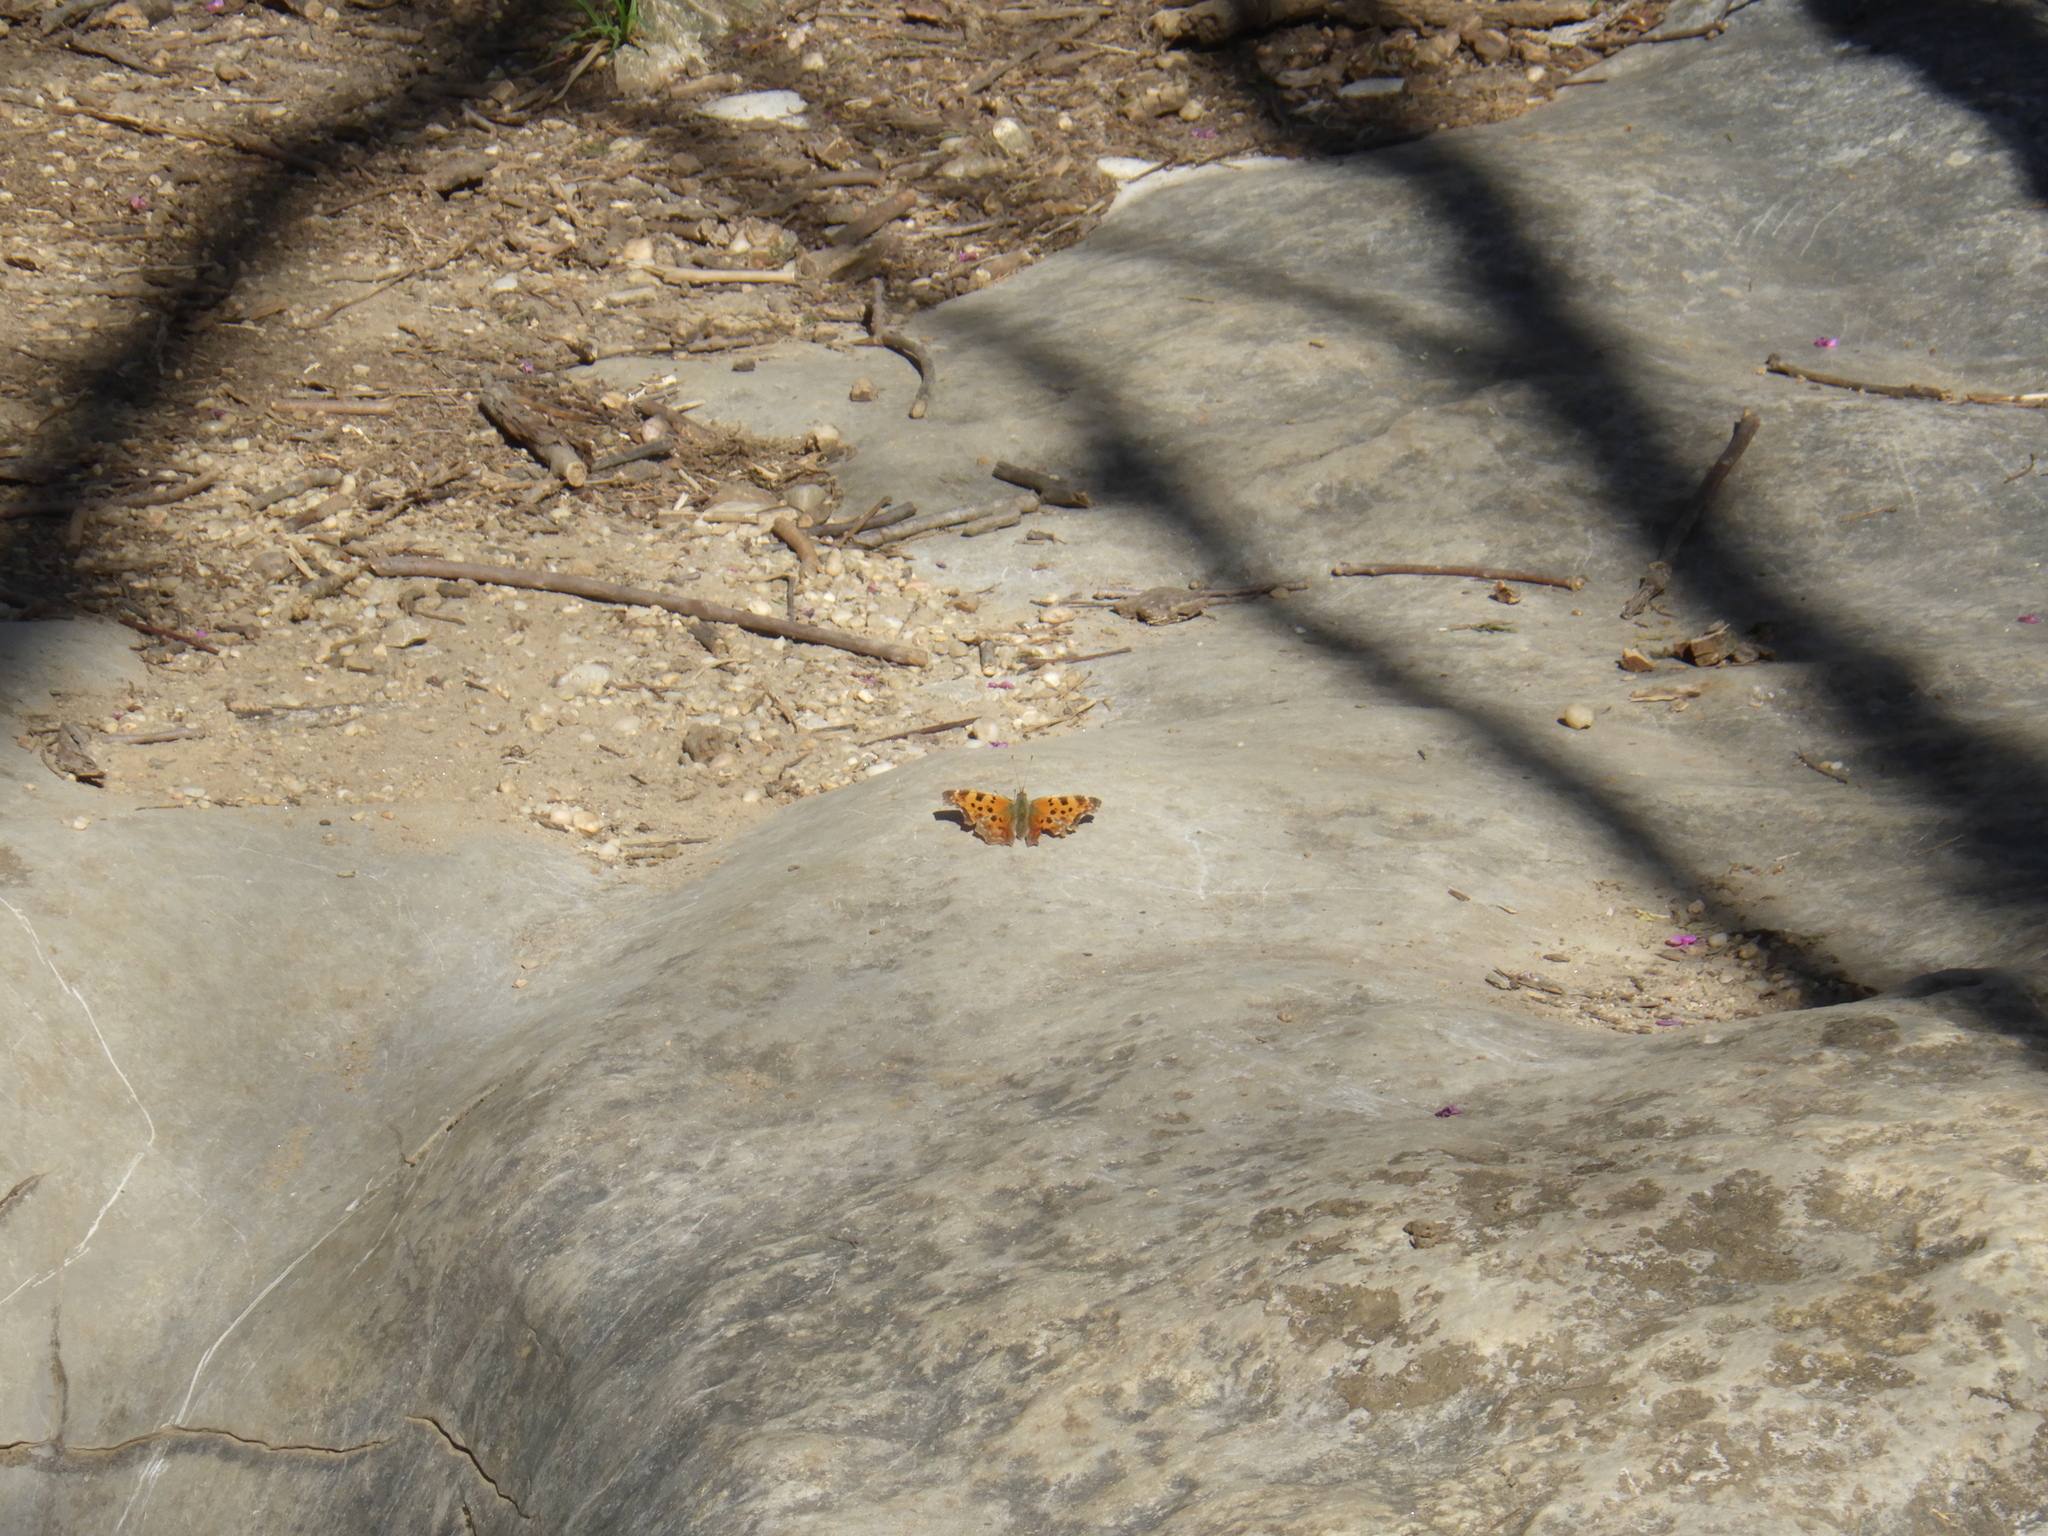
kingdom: Animalia
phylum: Arthropoda
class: Insecta
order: Lepidoptera
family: Nymphalidae
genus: Polygonia
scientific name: Polygonia comma
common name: Eastern comma
